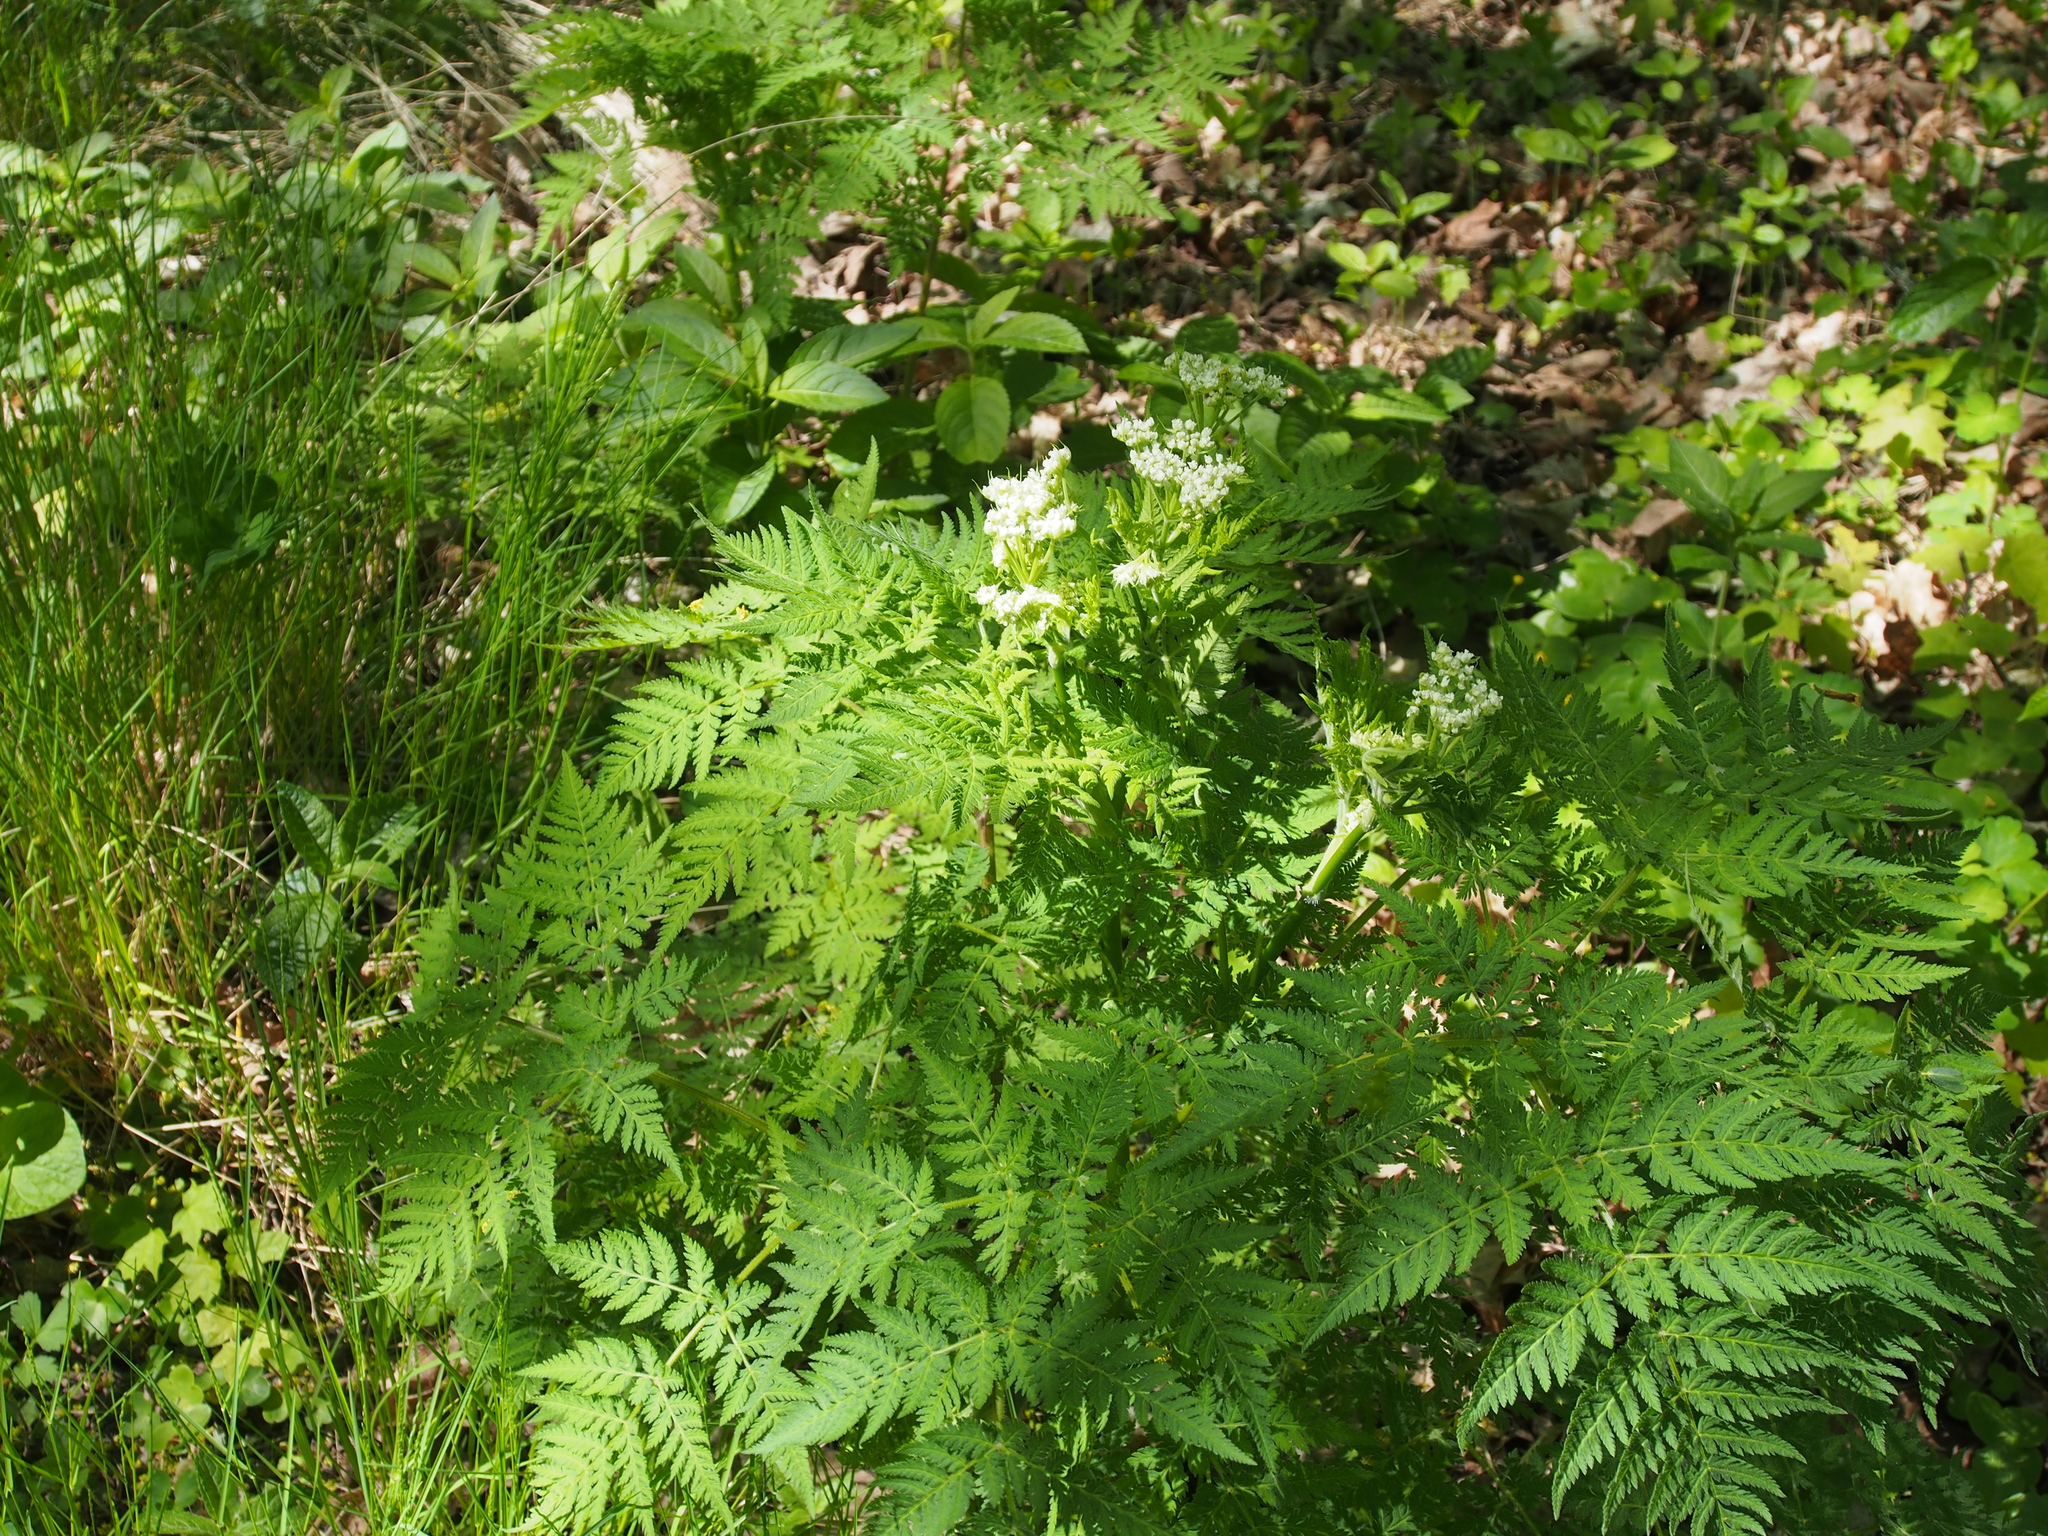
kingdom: Plantae
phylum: Tracheophyta
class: Magnoliopsida
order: Apiales
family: Apiaceae
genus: Myrrhis
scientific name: Myrrhis odorata
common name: Sweet cicely
